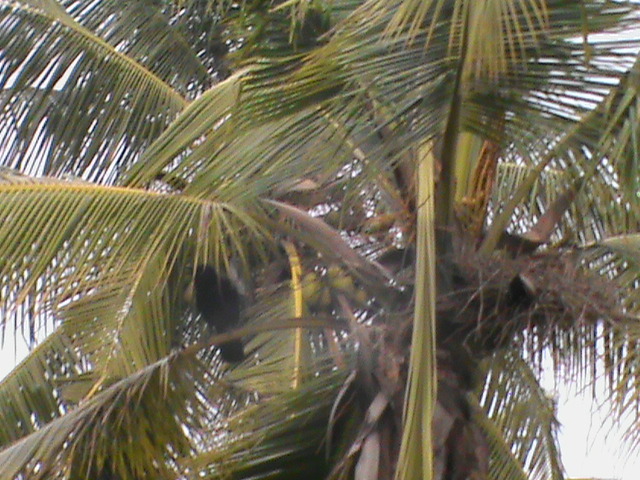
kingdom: Animalia
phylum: Chordata
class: Aves
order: Passeriformes
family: Corvidae
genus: Corvus
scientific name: Corvus macrorhynchos
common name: Large-billed crow
